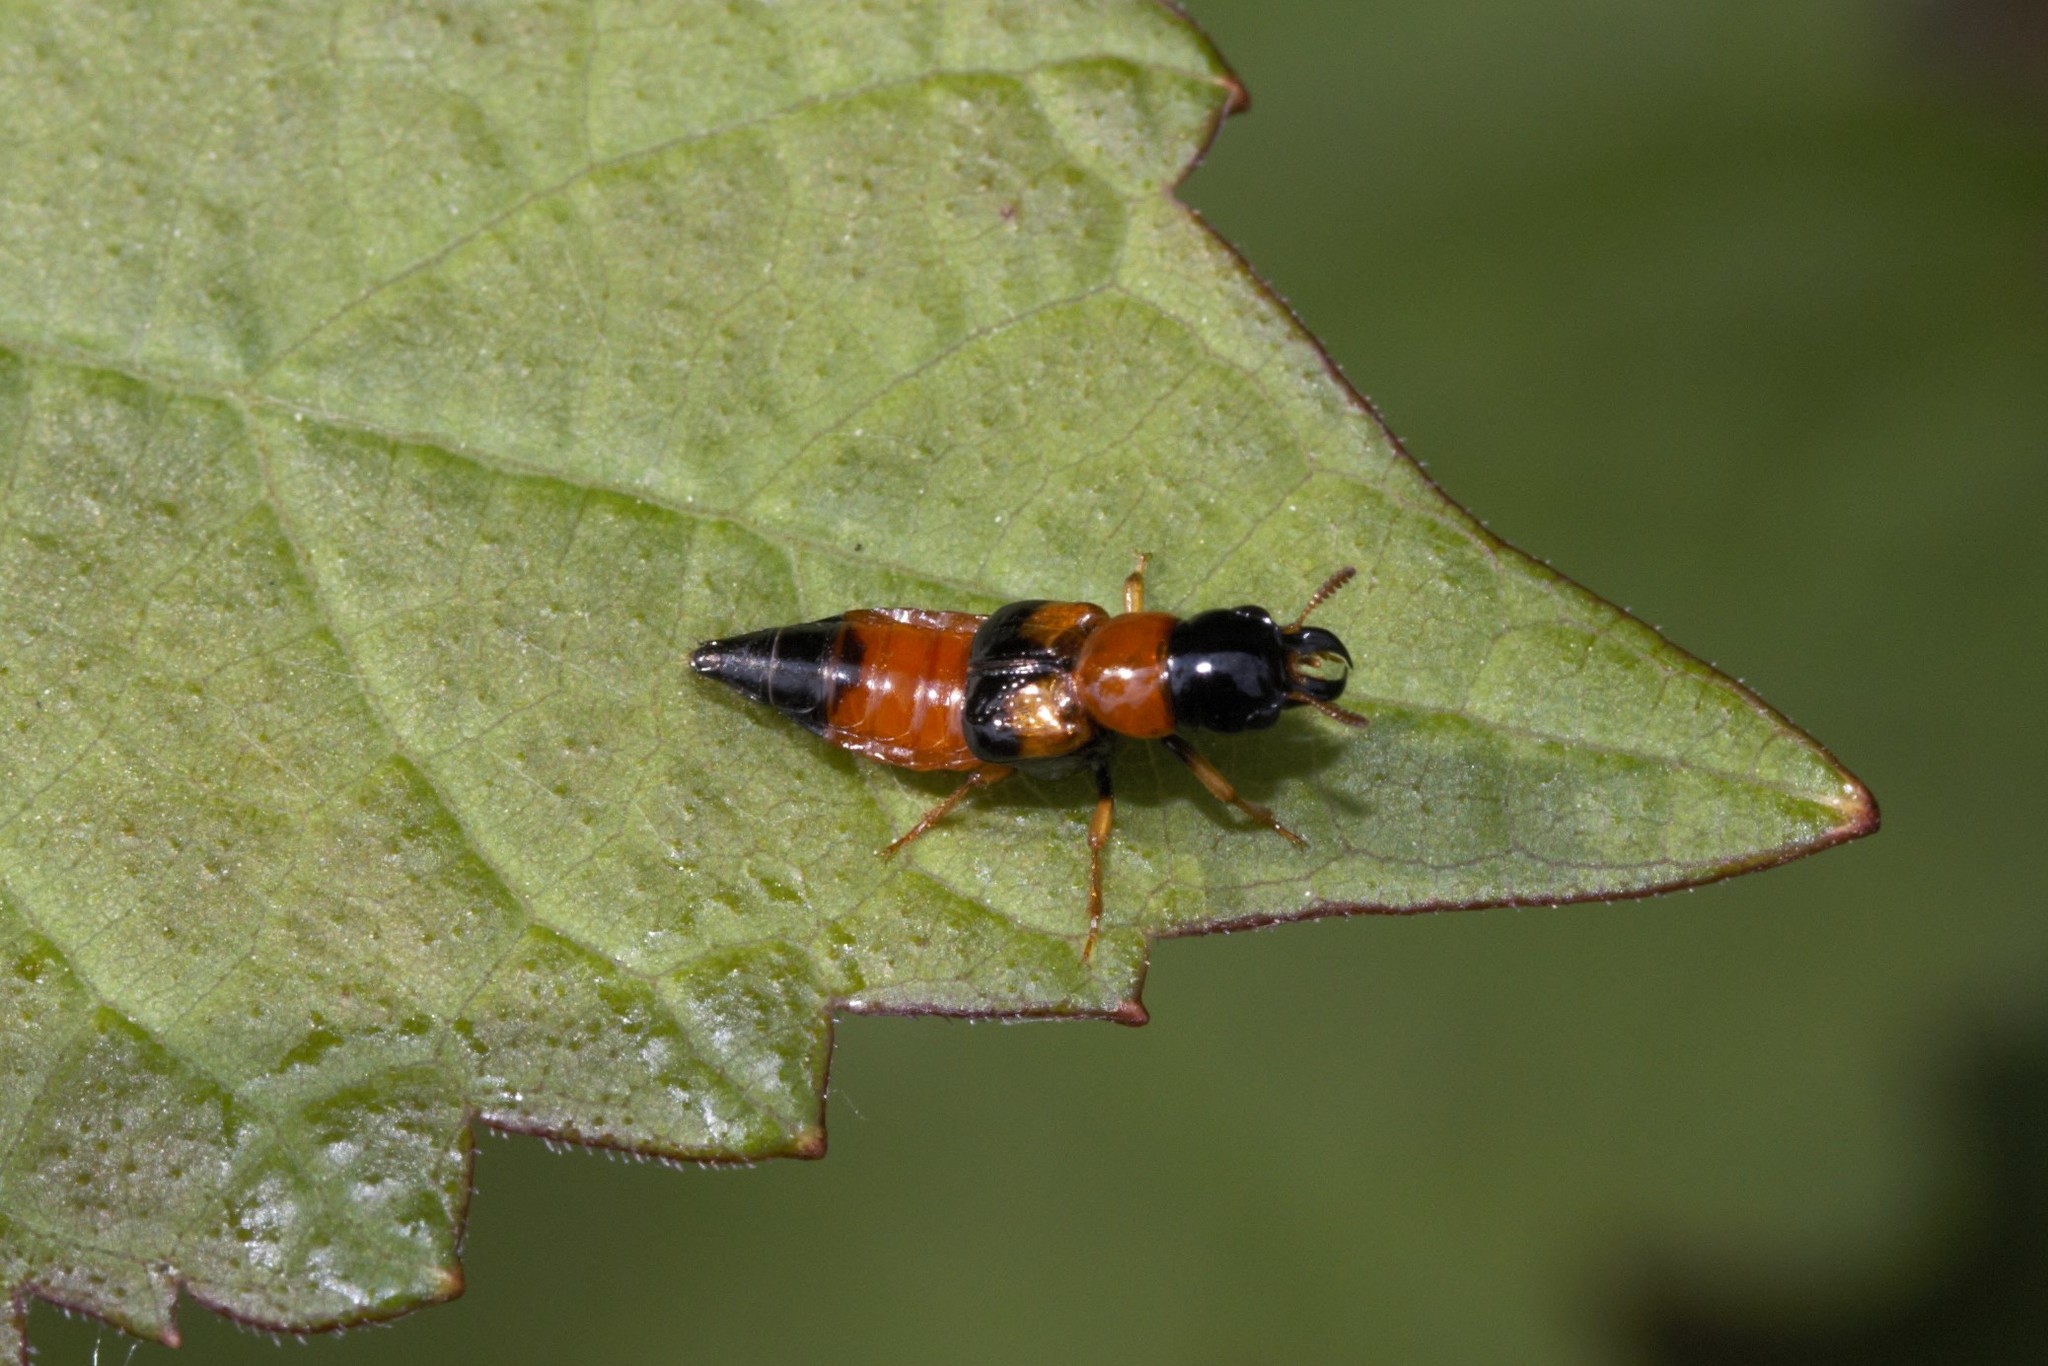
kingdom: Animalia
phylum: Arthropoda
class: Insecta
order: Coleoptera
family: Staphylinidae
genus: Oxyporus
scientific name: Oxyporus rufus
